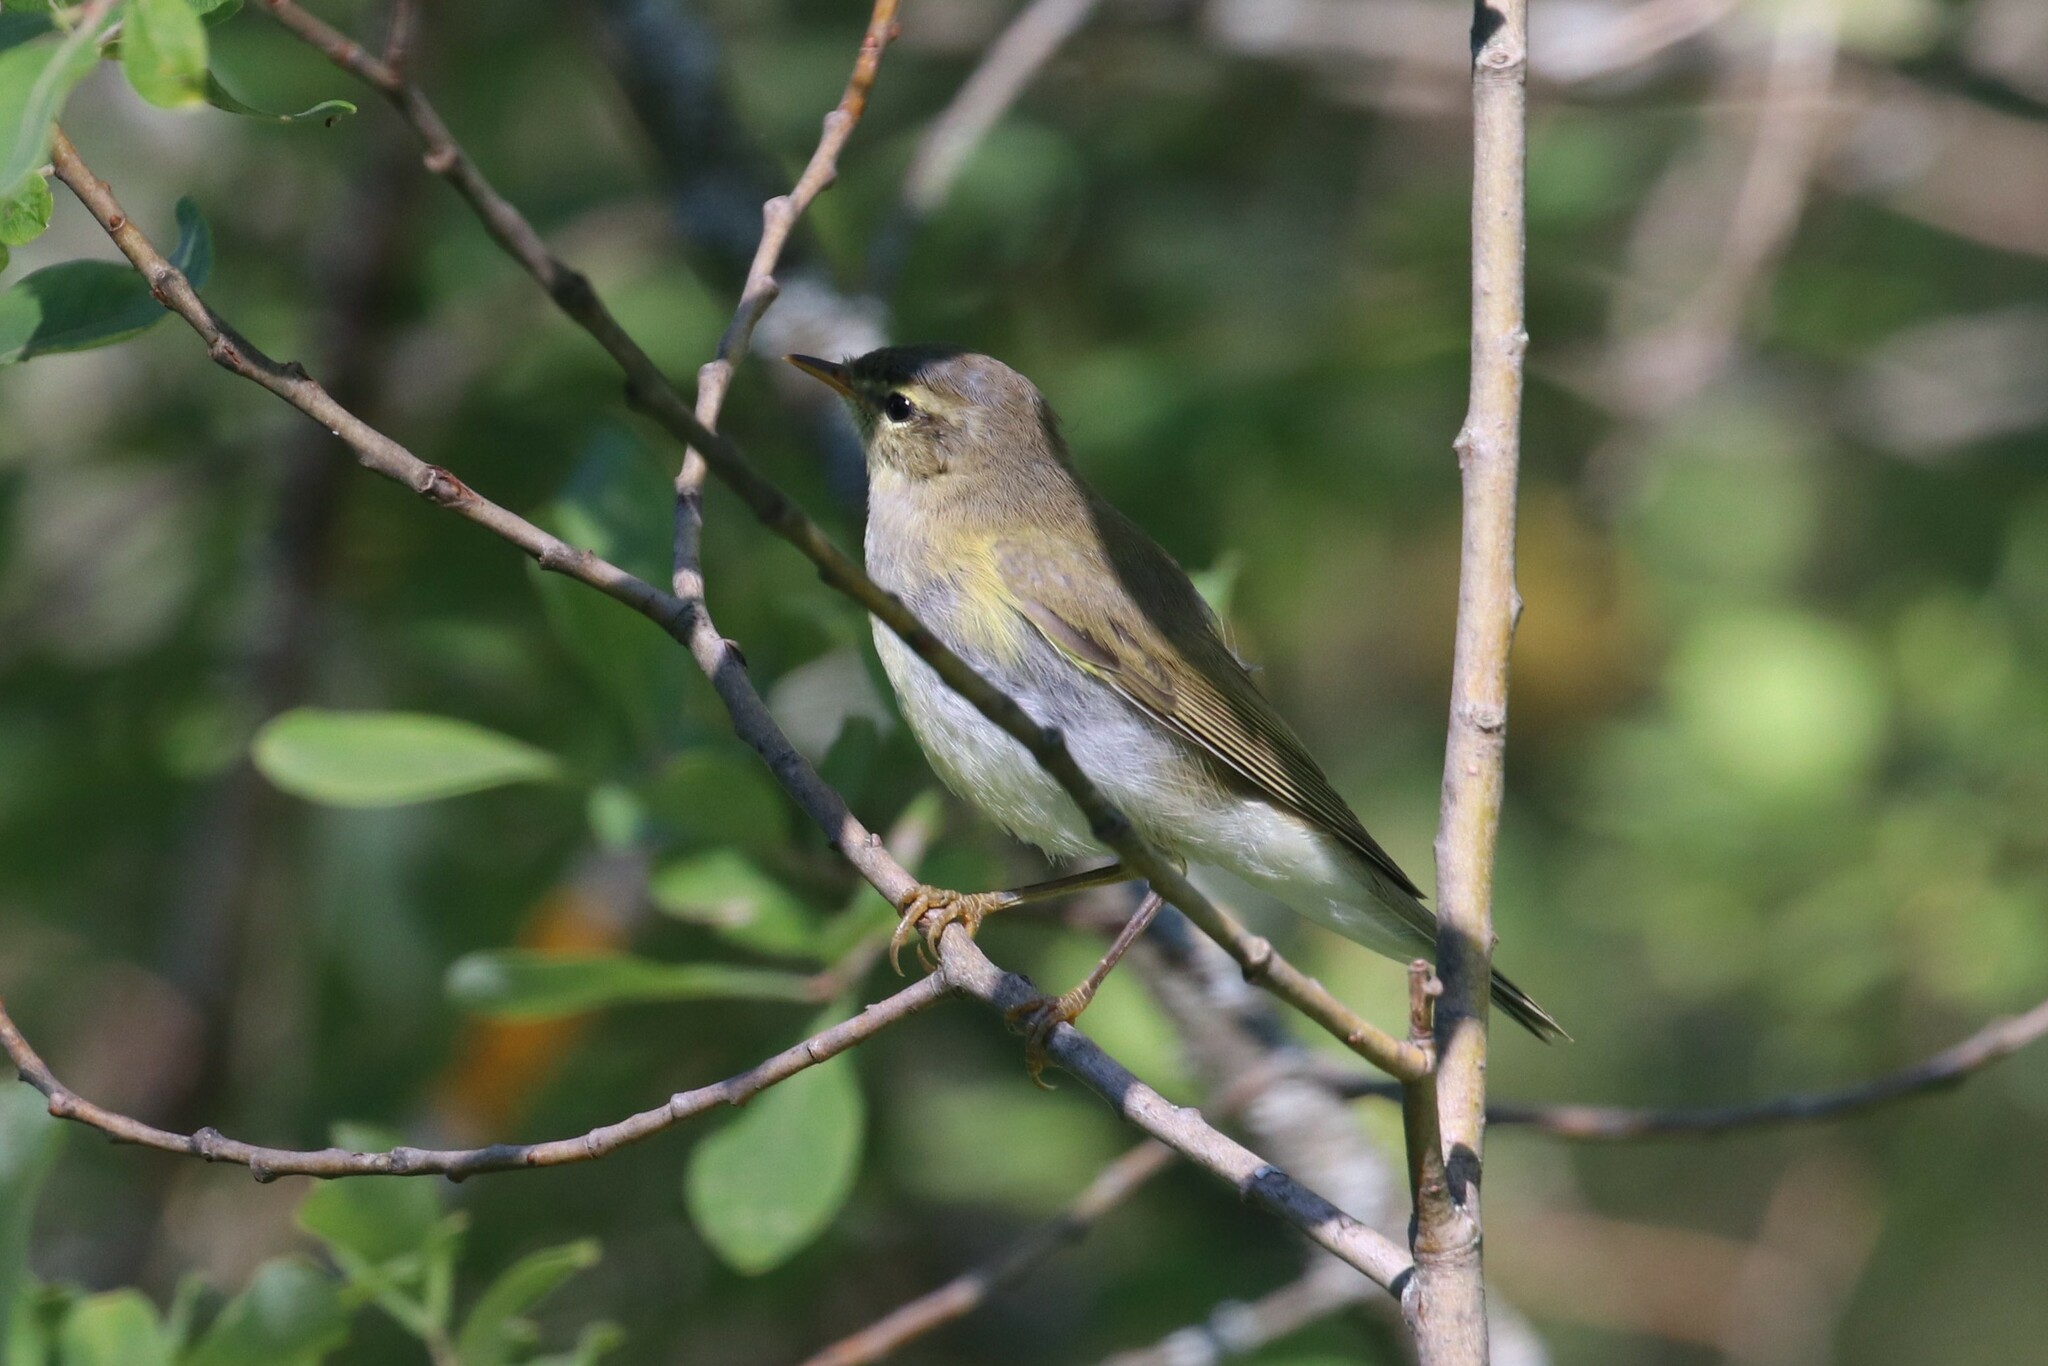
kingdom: Animalia
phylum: Chordata
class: Aves
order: Passeriformes
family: Phylloscopidae
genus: Phylloscopus
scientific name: Phylloscopus trochilus
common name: Willow warbler
